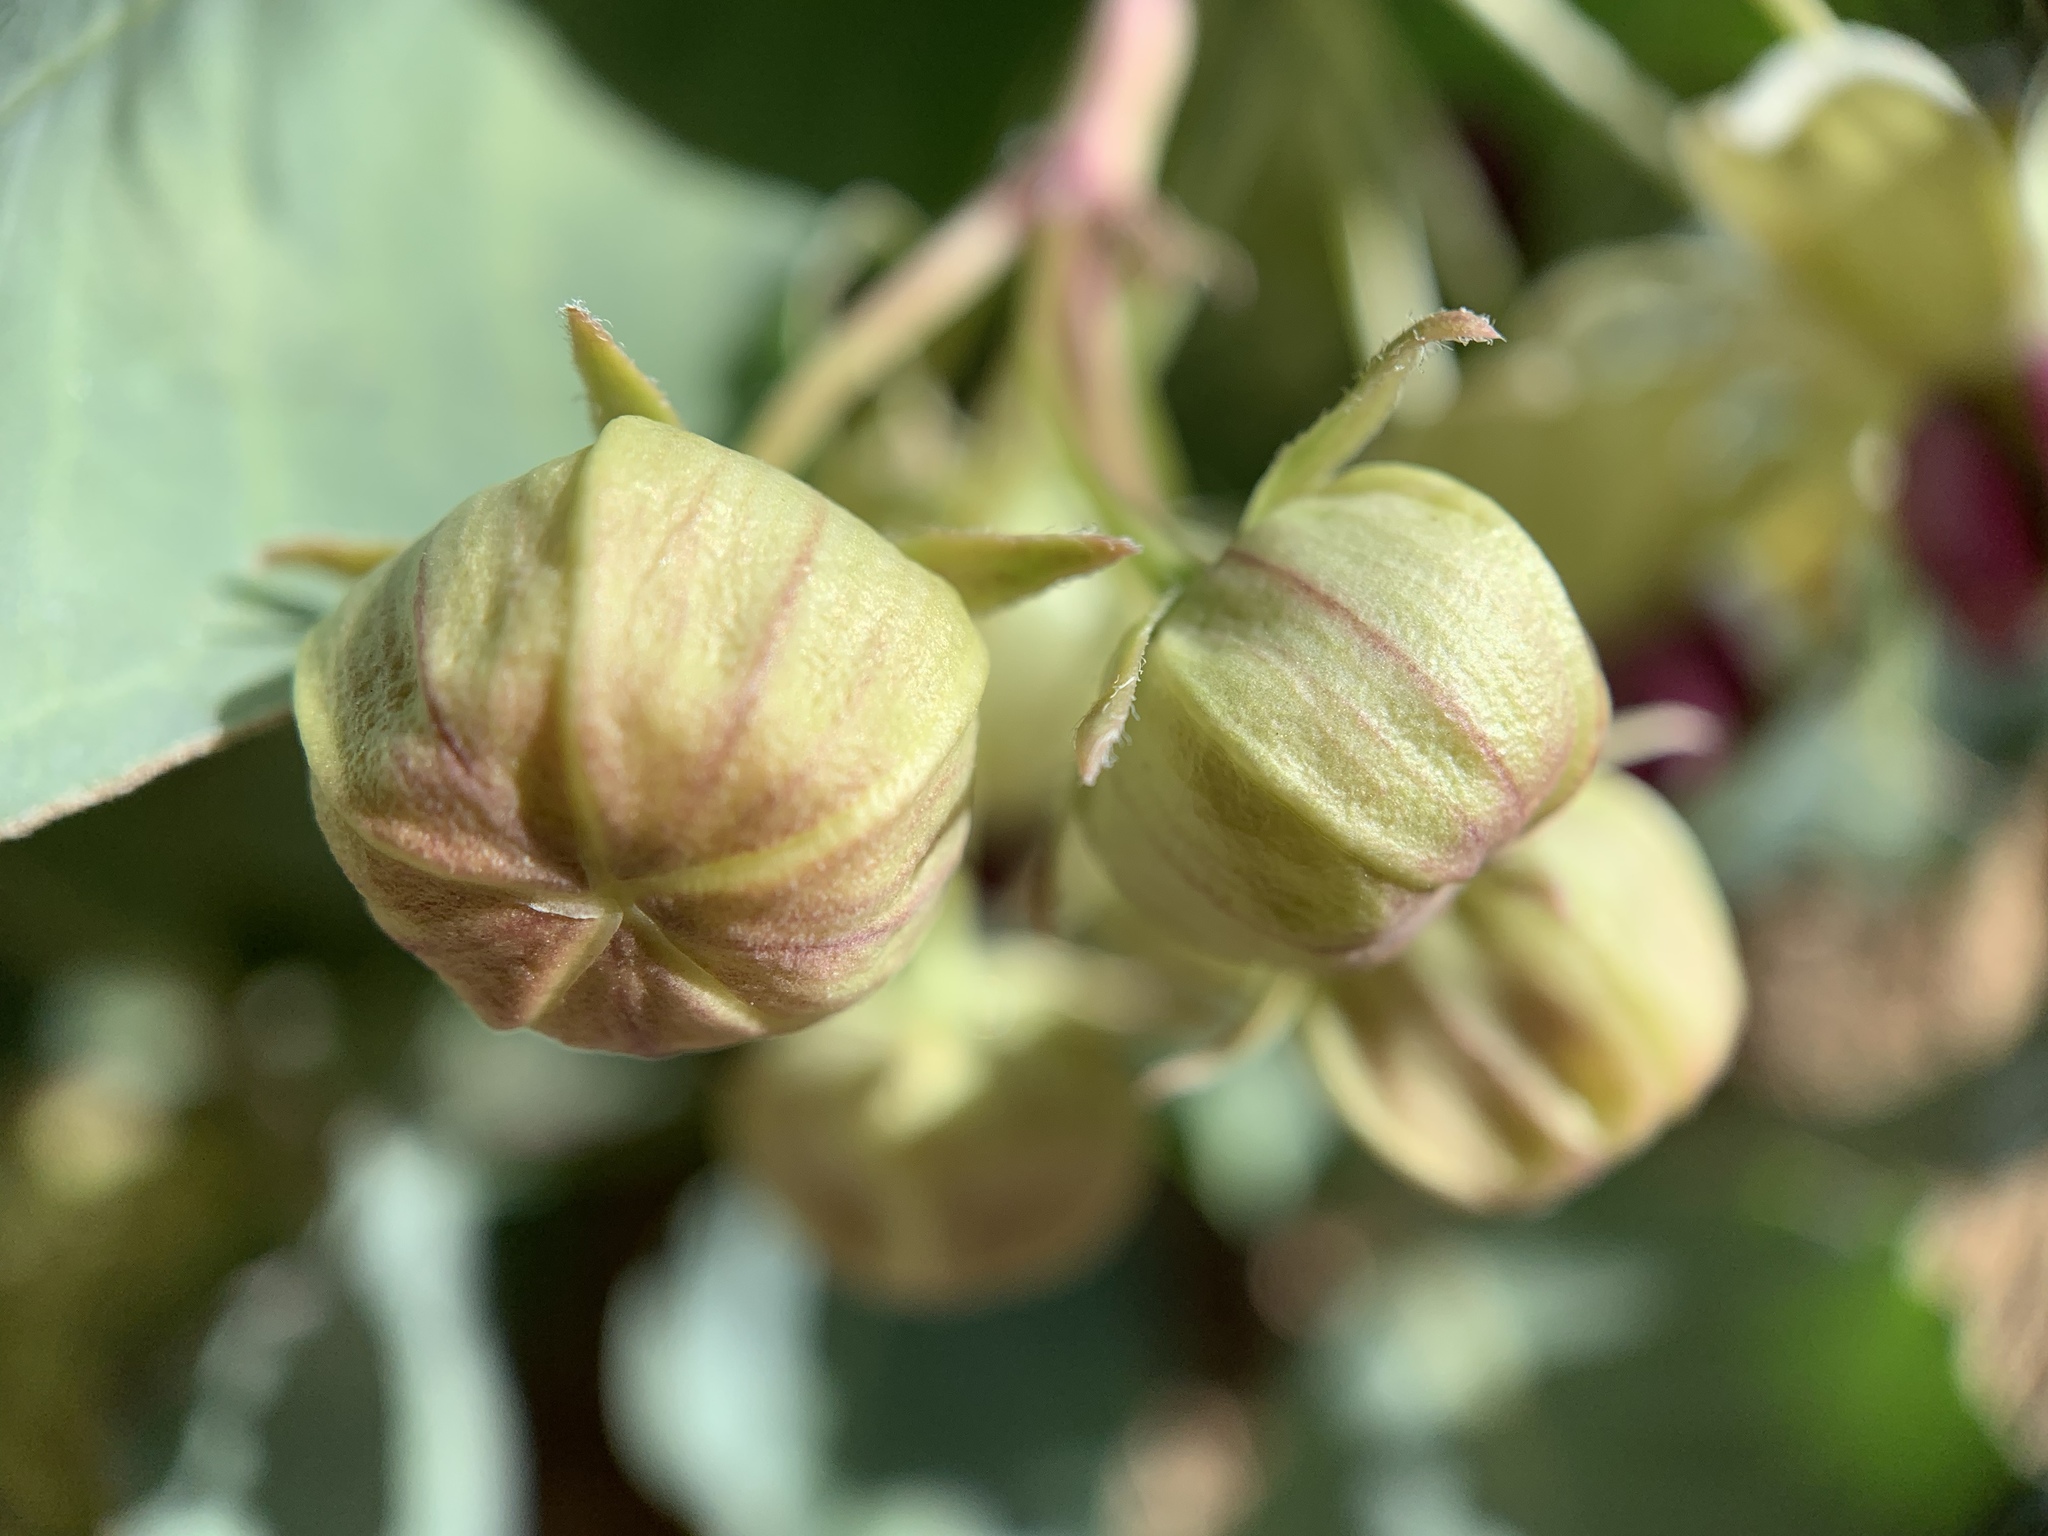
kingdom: Plantae
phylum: Tracheophyta
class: Magnoliopsida
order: Gentianales
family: Apocynaceae
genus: Asclepias
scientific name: Asclepias cryptoceras
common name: Humboldt mountains milkweed
